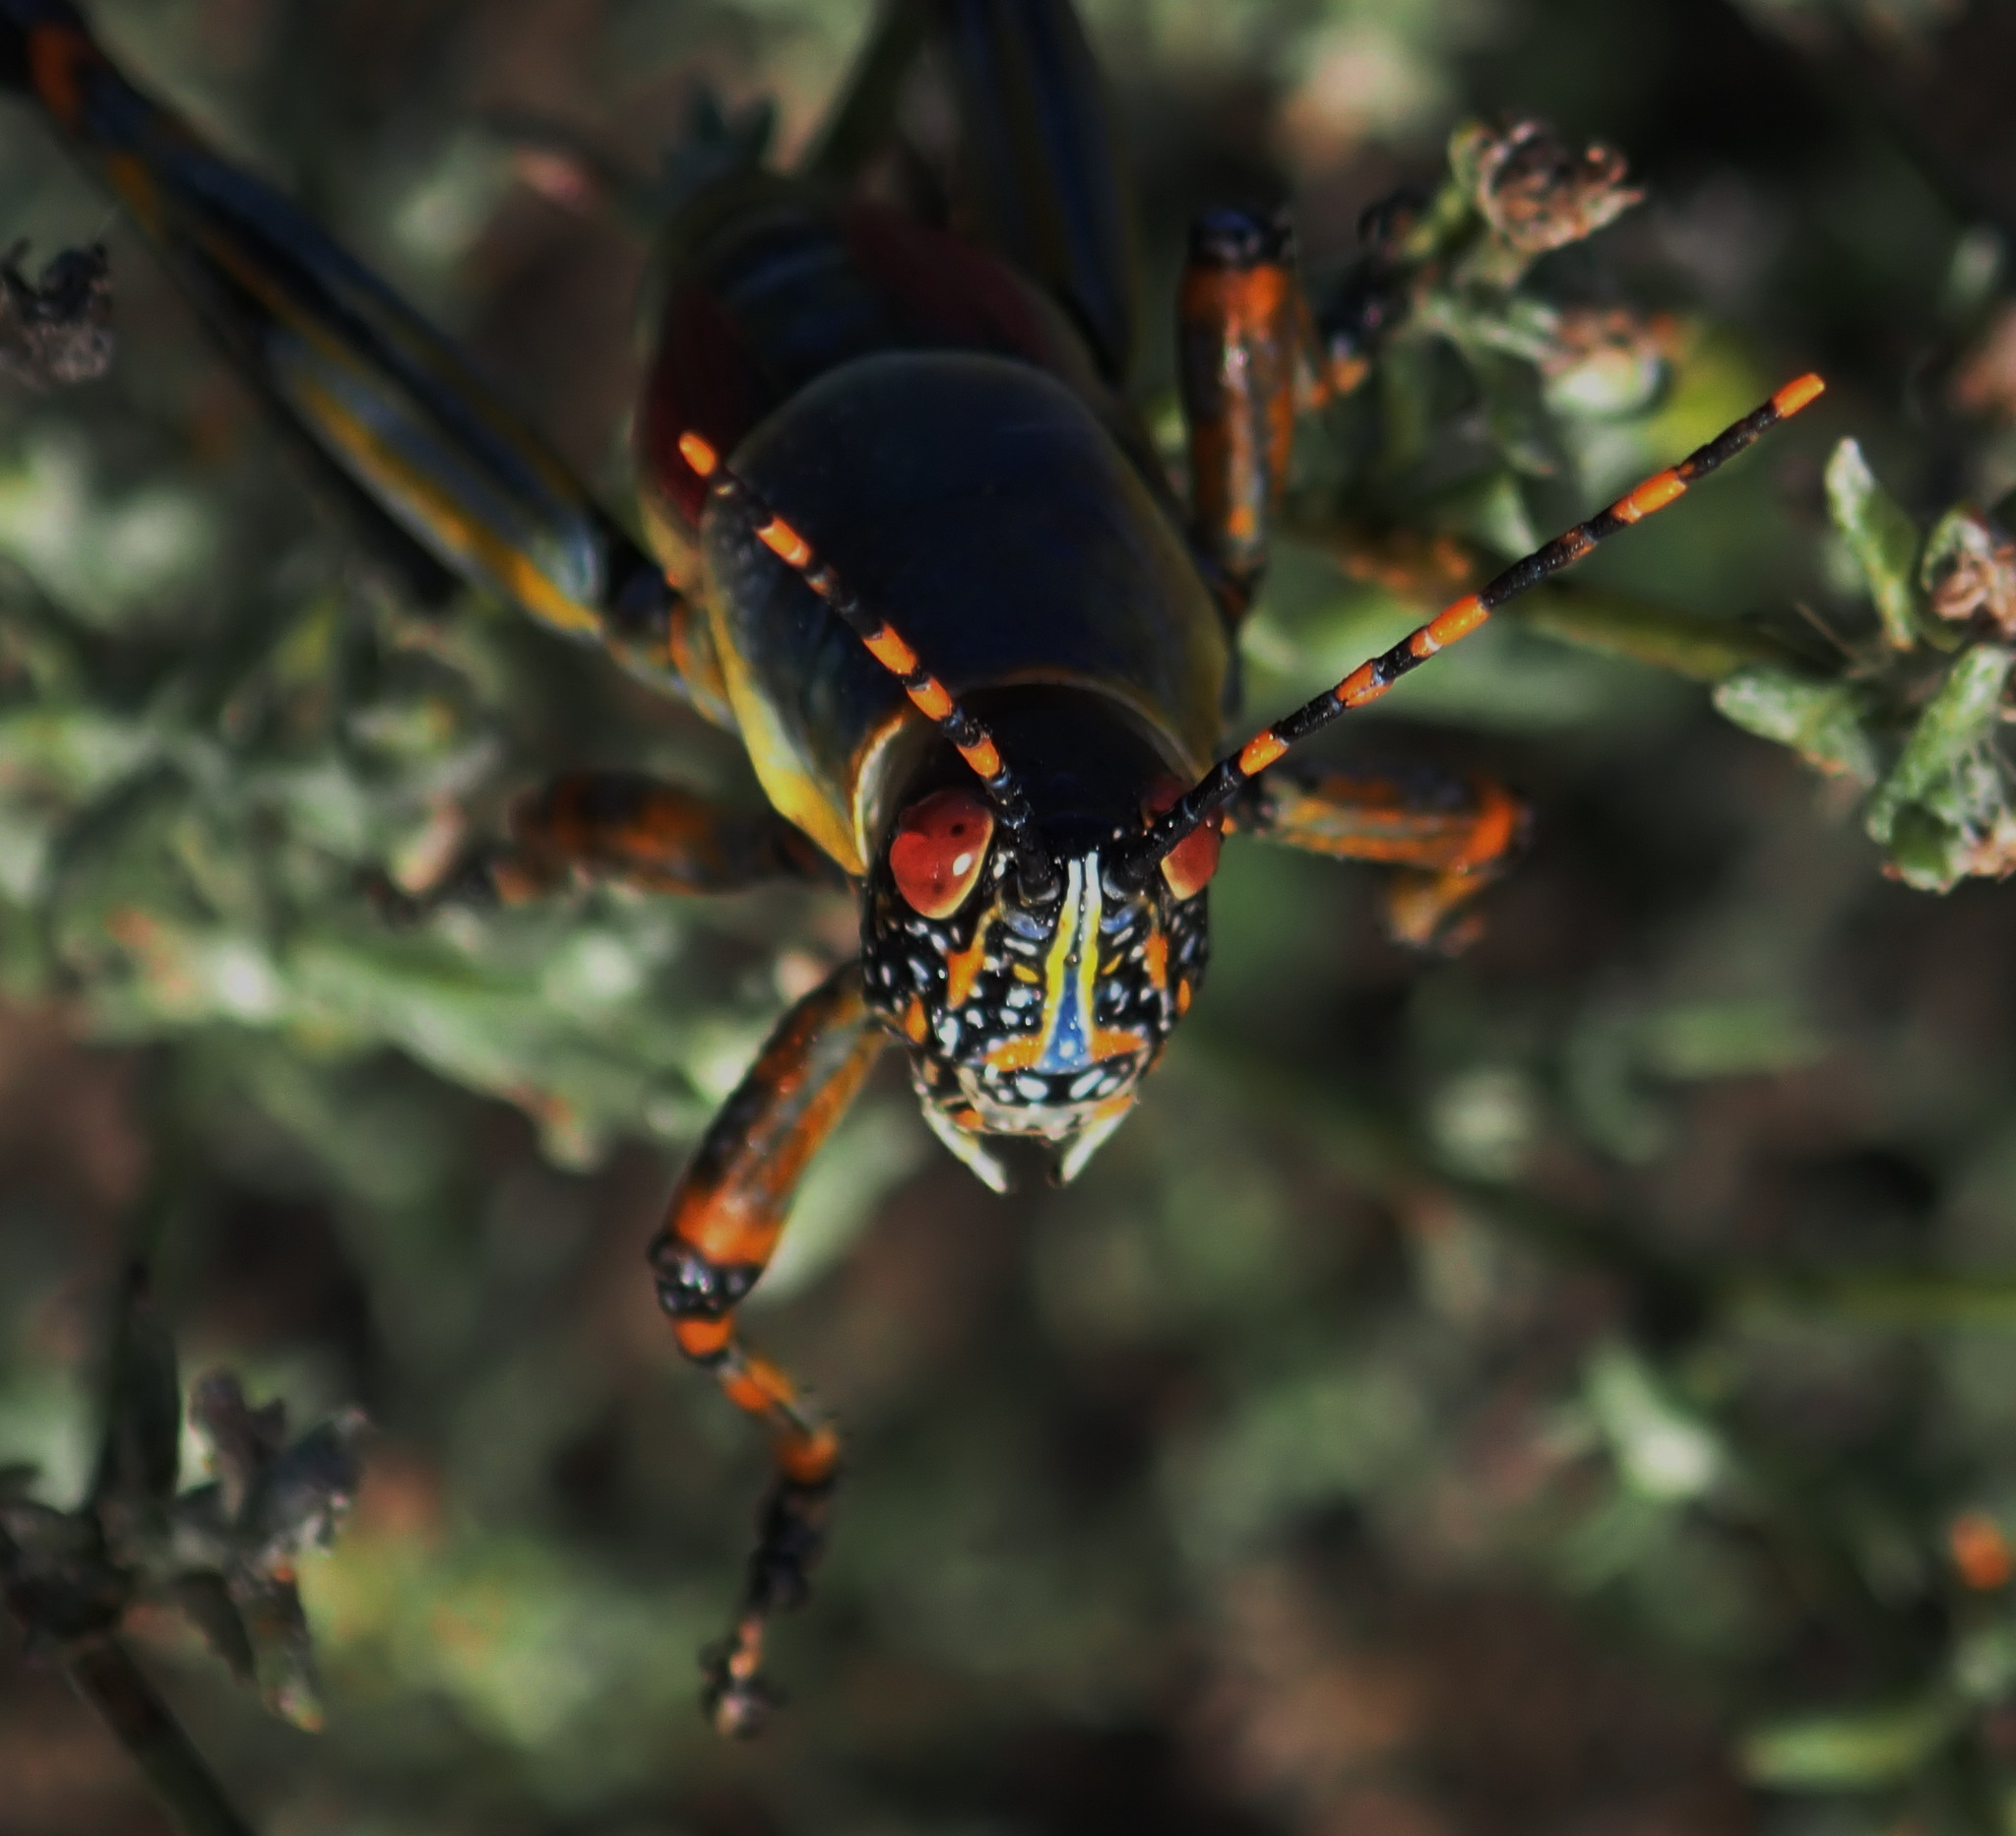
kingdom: Animalia
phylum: Arthropoda
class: Insecta
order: Orthoptera
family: Pyrgomorphidae
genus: Zonocerus
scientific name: Zonocerus elegans
